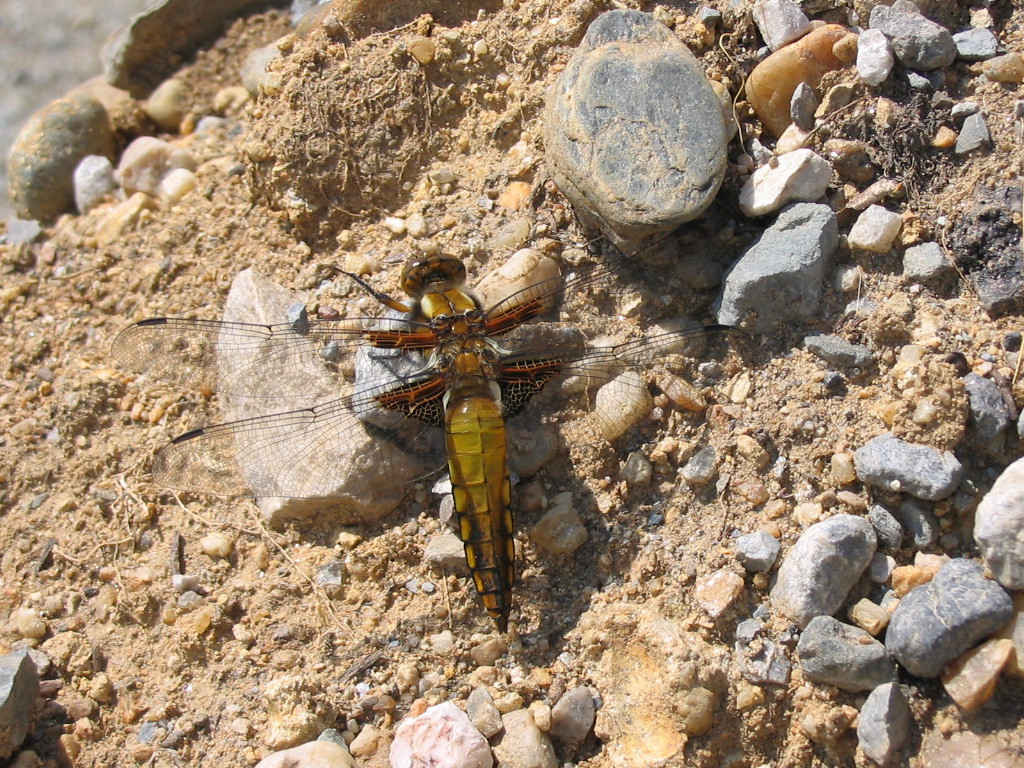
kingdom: Animalia
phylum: Arthropoda
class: Insecta
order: Odonata
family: Libellulidae
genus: Libellula
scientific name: Libellula depressa
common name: Broad-bodied chaser
